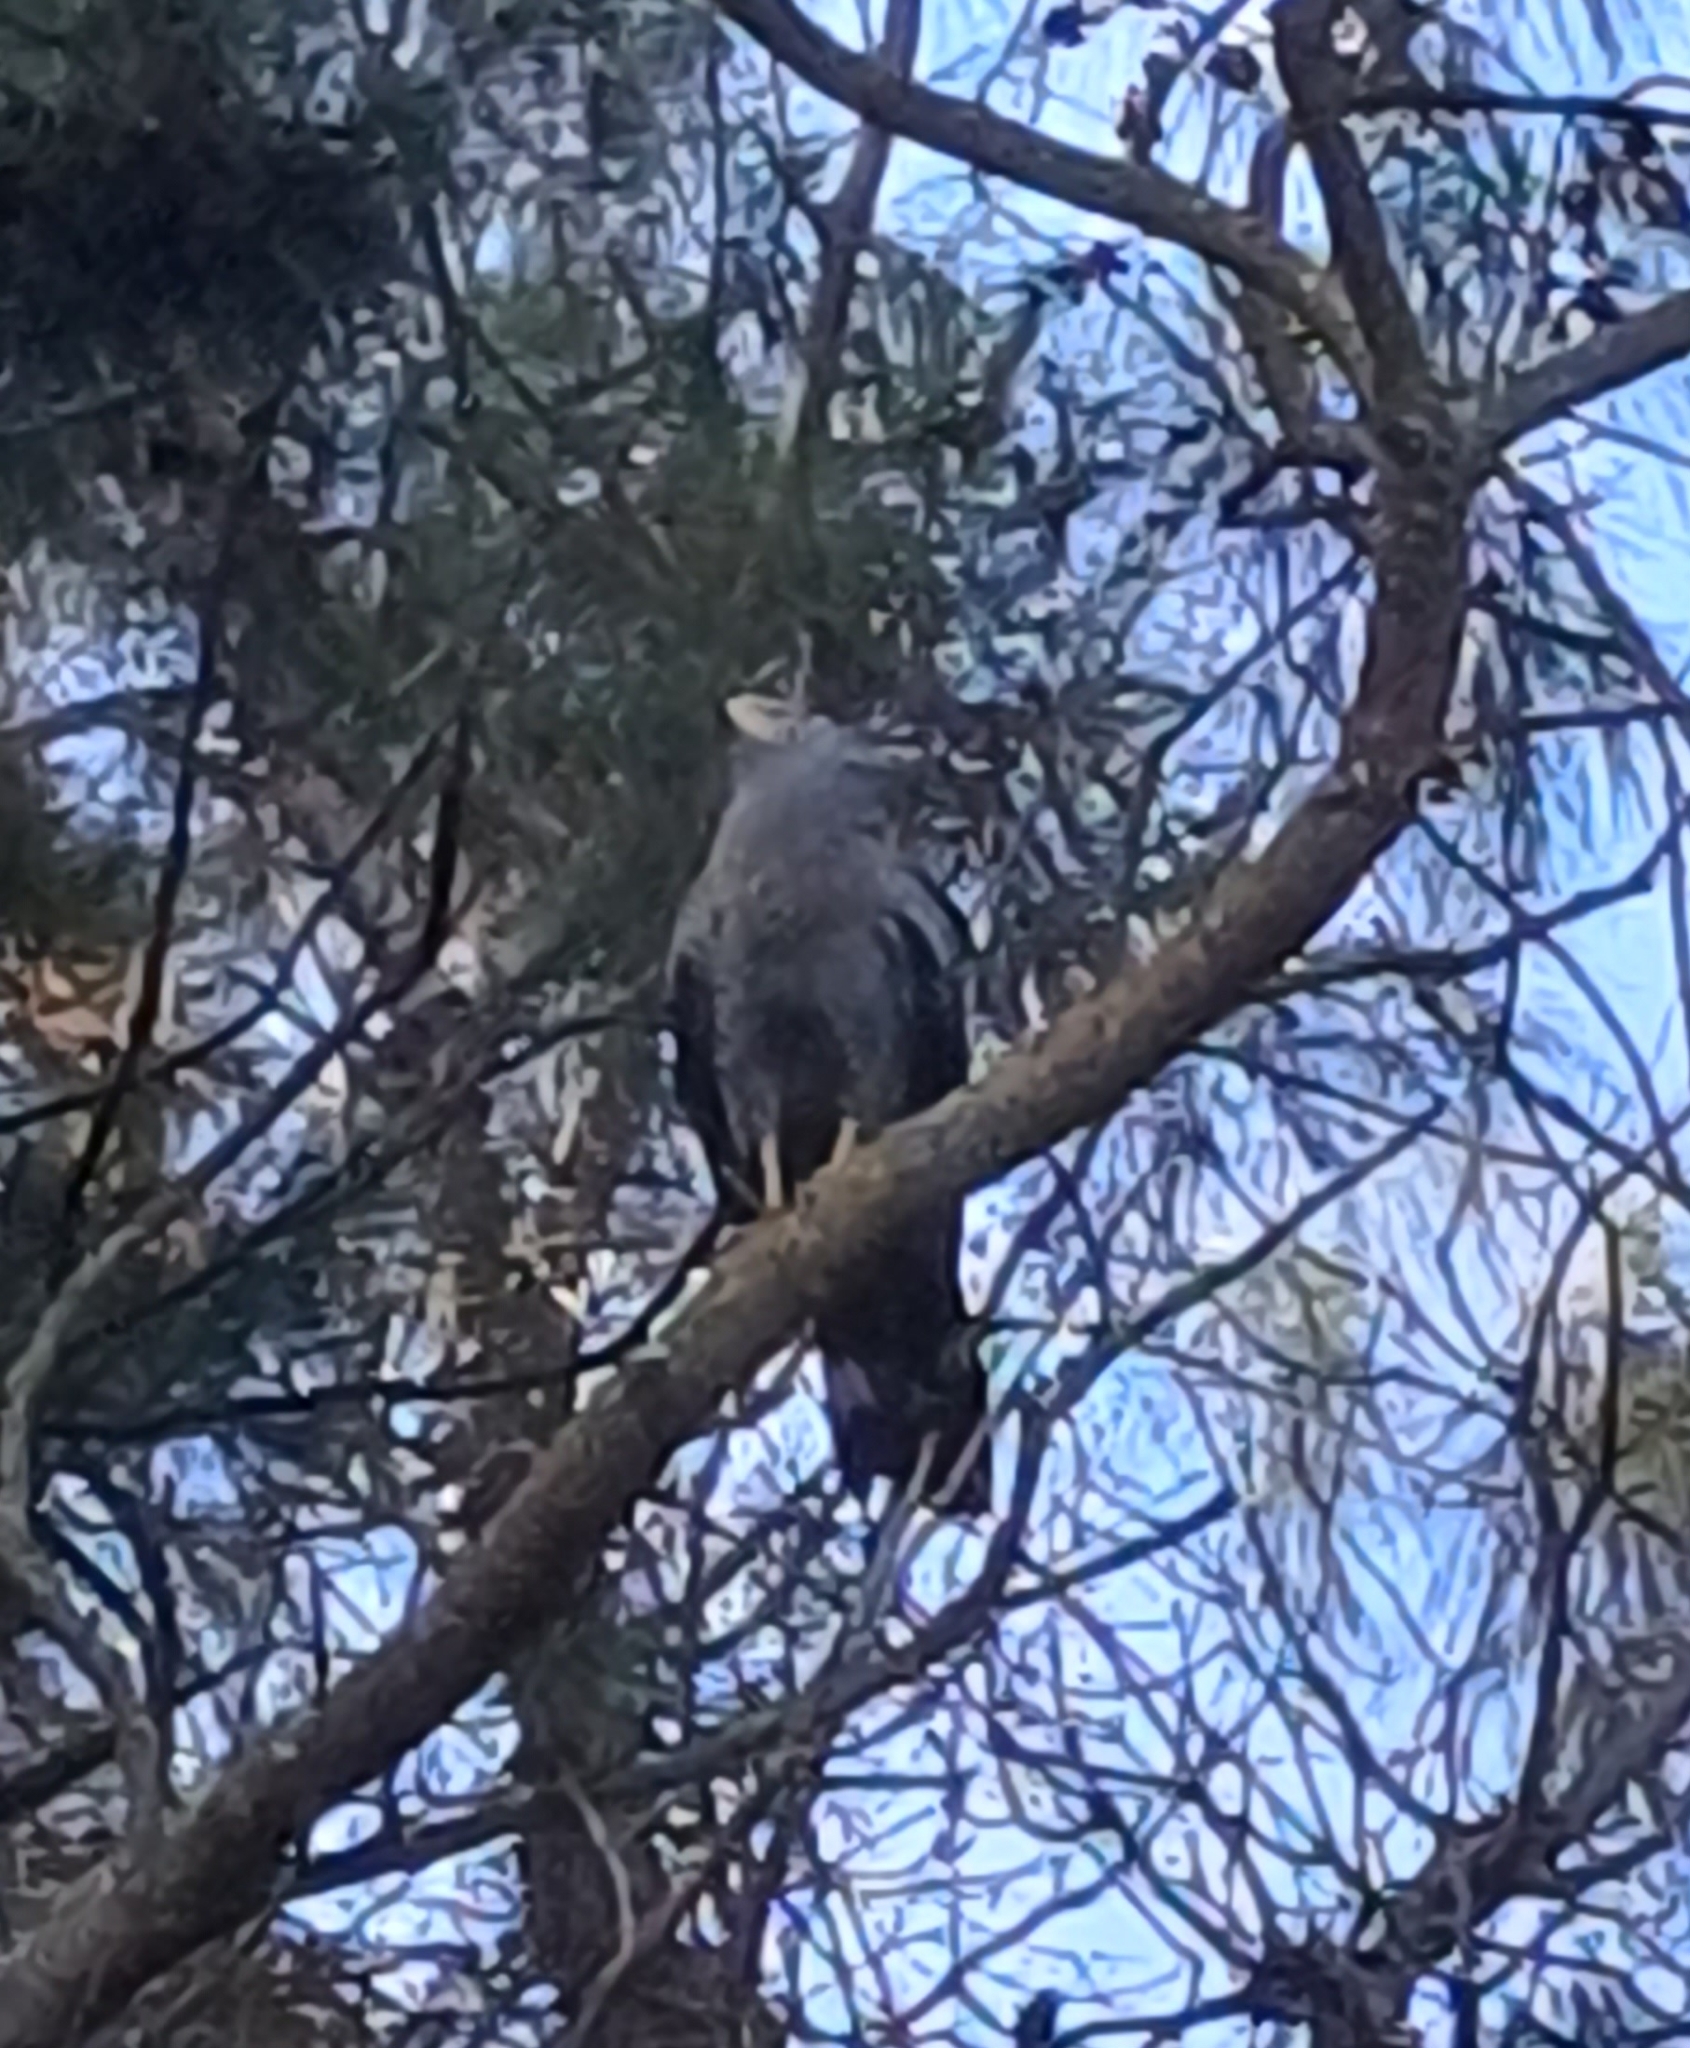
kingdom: Animalia
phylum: Chordata
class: Aves
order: Accipitriformes
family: Accipitridae
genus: Polyboroides
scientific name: Polyboroides typus
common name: African harrier-hawk
